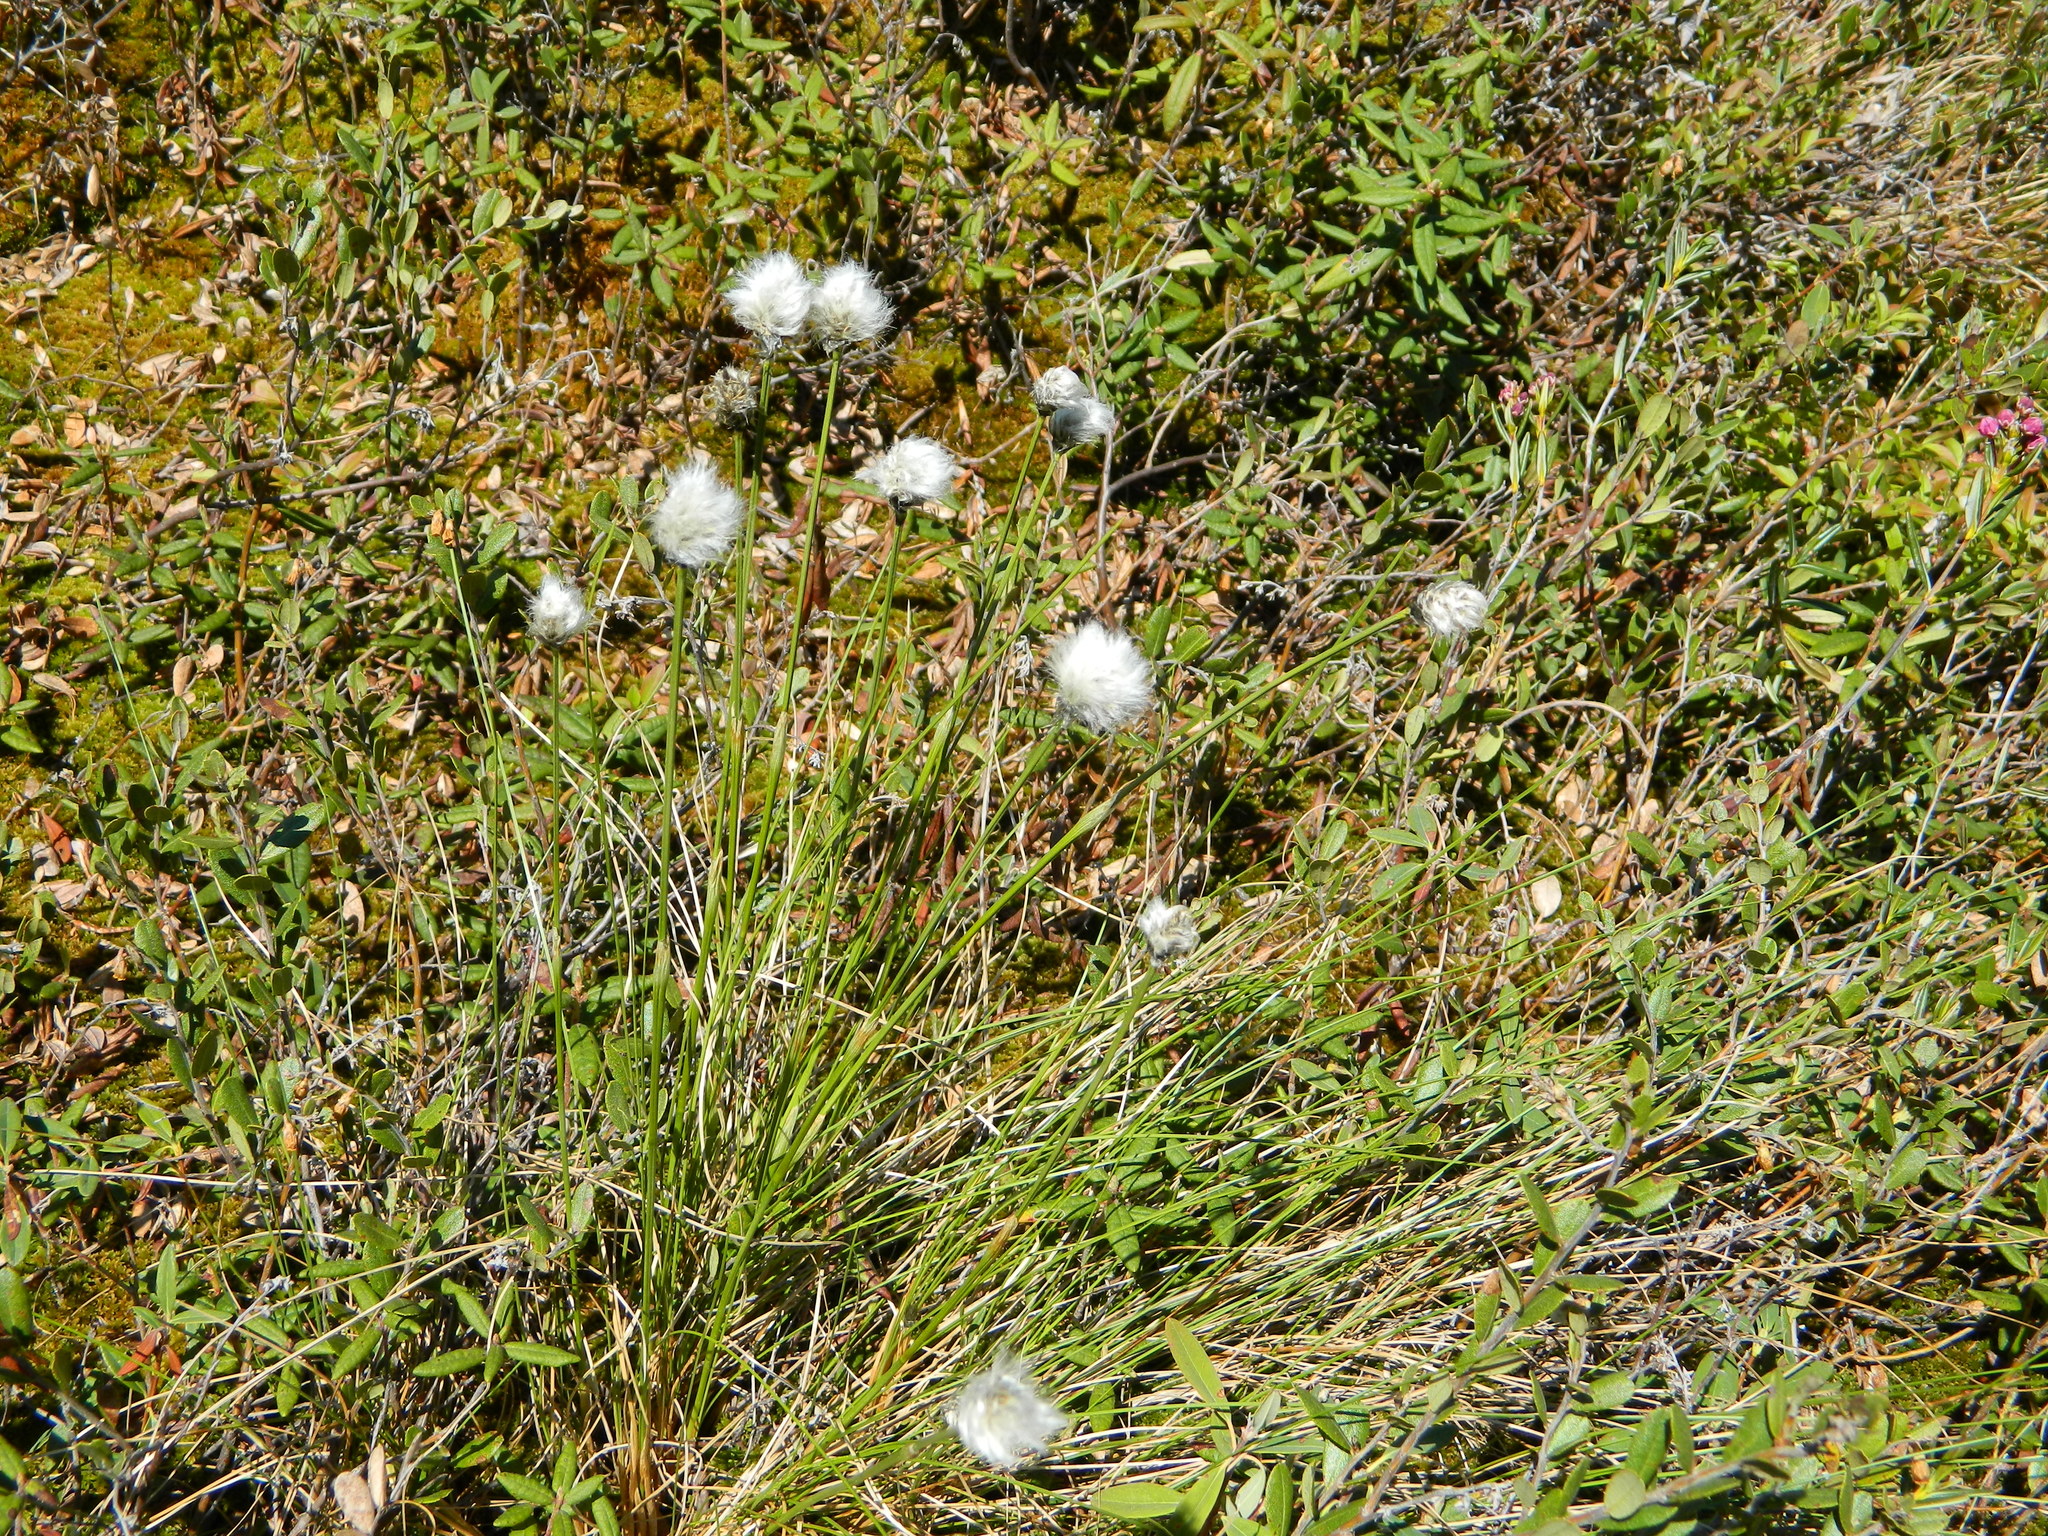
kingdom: Plantae
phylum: Tracheophyta
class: Liliopsida
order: Poales
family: Cyperaceae
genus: Eriophorum
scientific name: Eriophorum vaginatum
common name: Hare's-tail cottongrass
